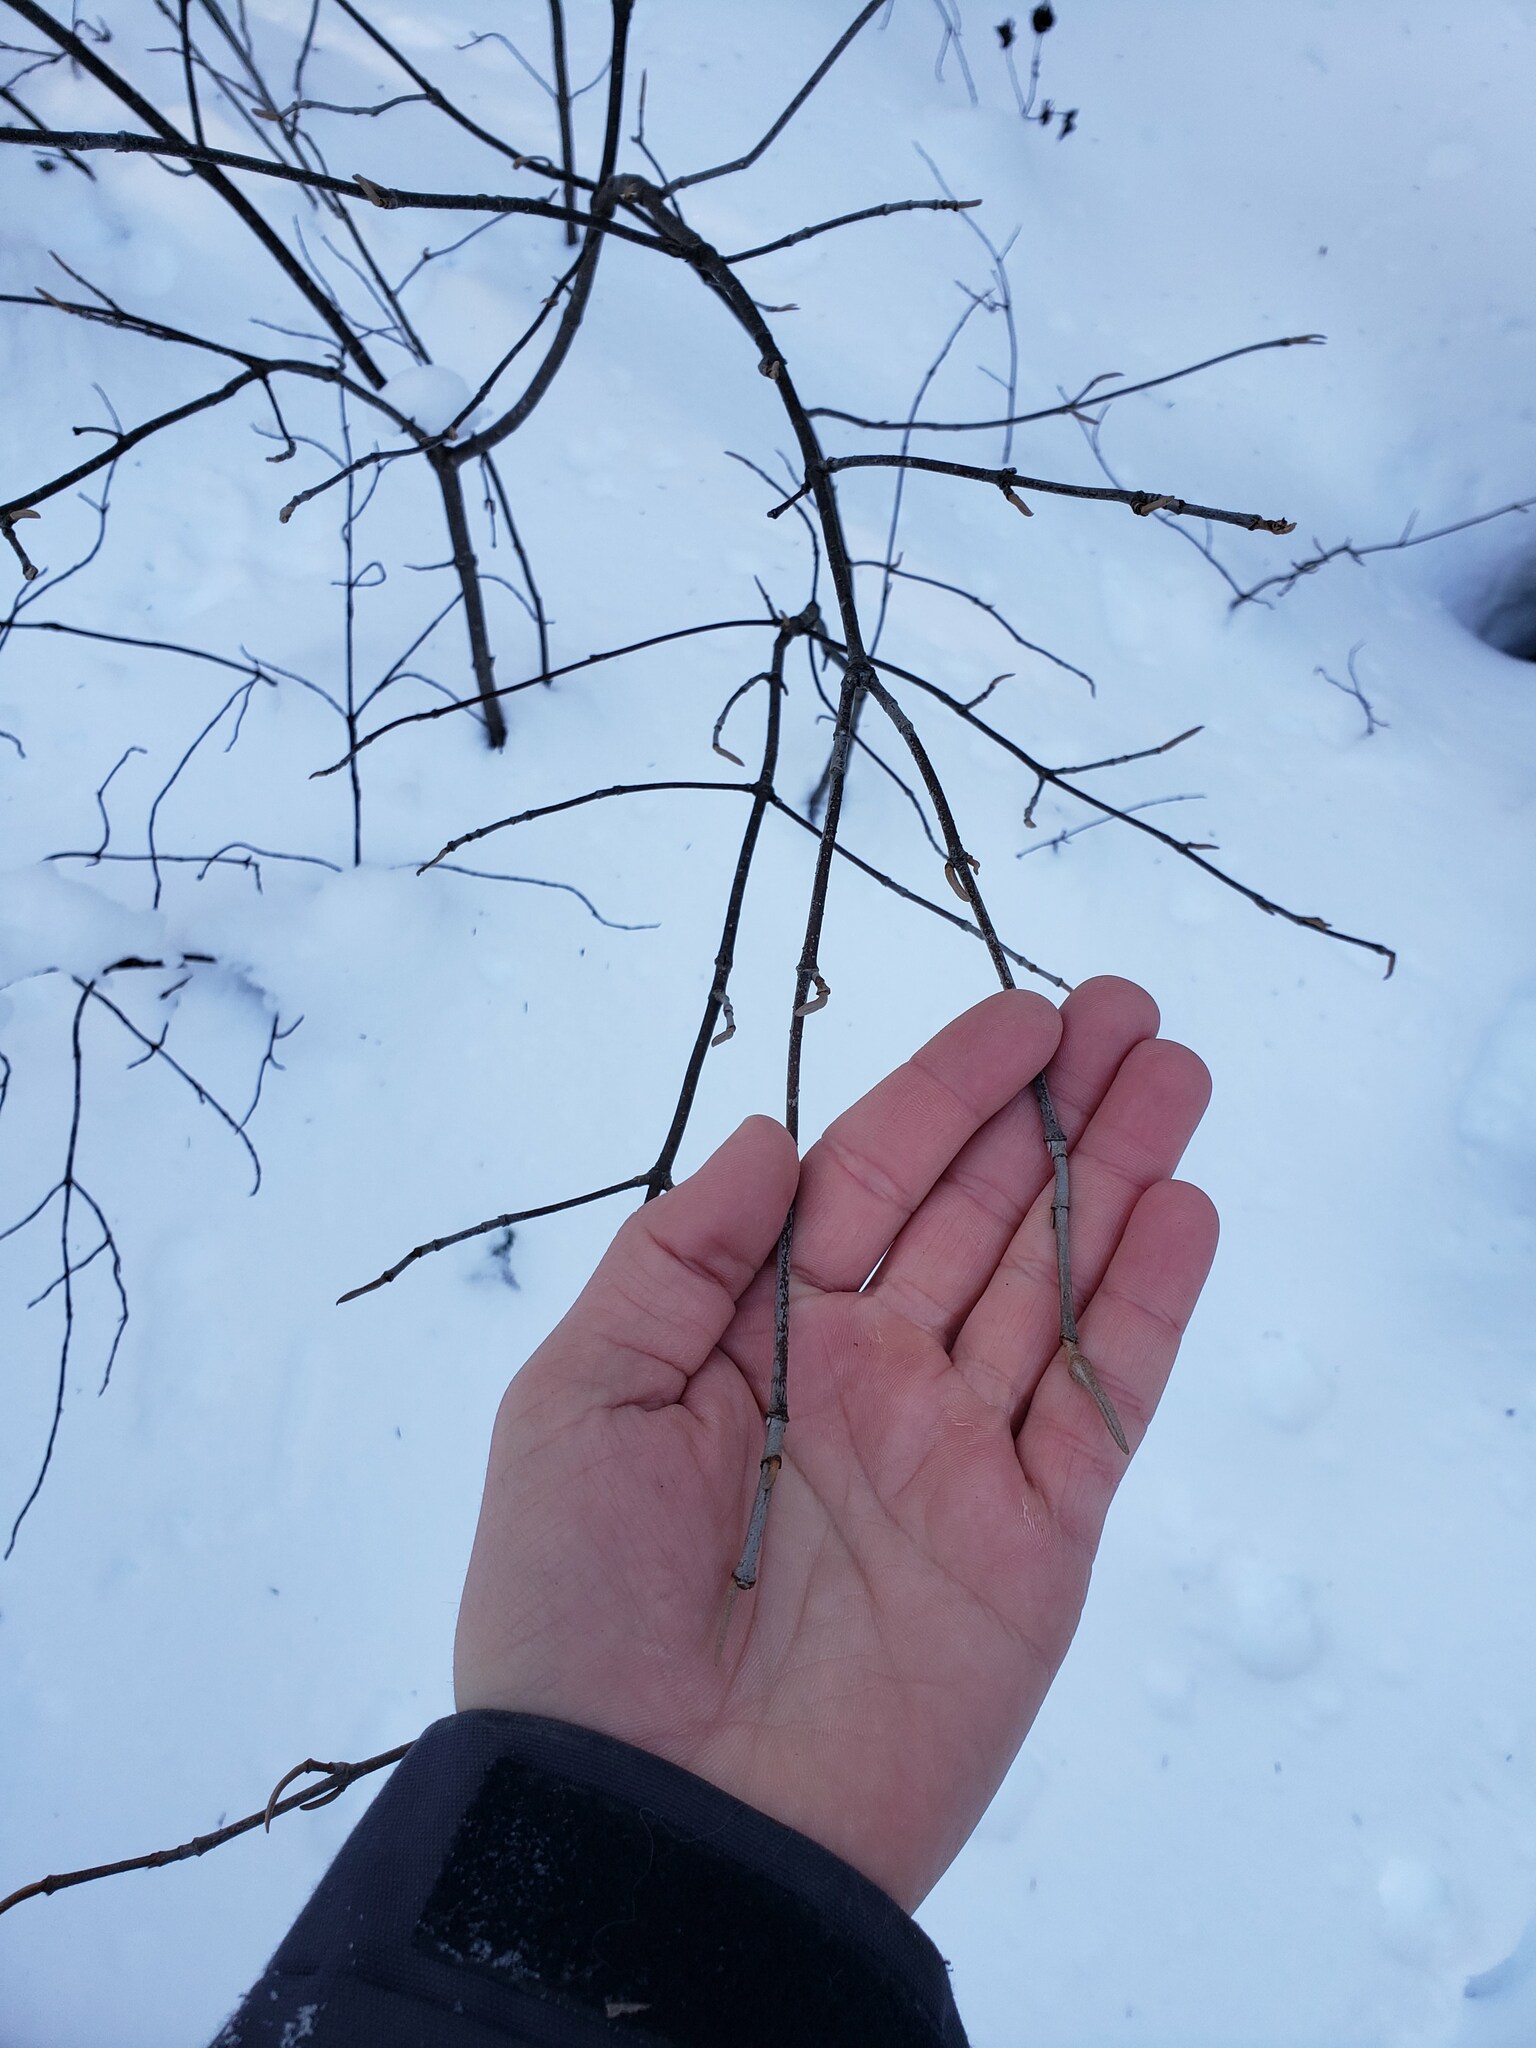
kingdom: Plantae
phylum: Tracheophyta
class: Magnoliopsida
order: Dipsacales
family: Viburnaceae
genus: Viburnum
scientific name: Viburnum cassinoides
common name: Swamp haw
